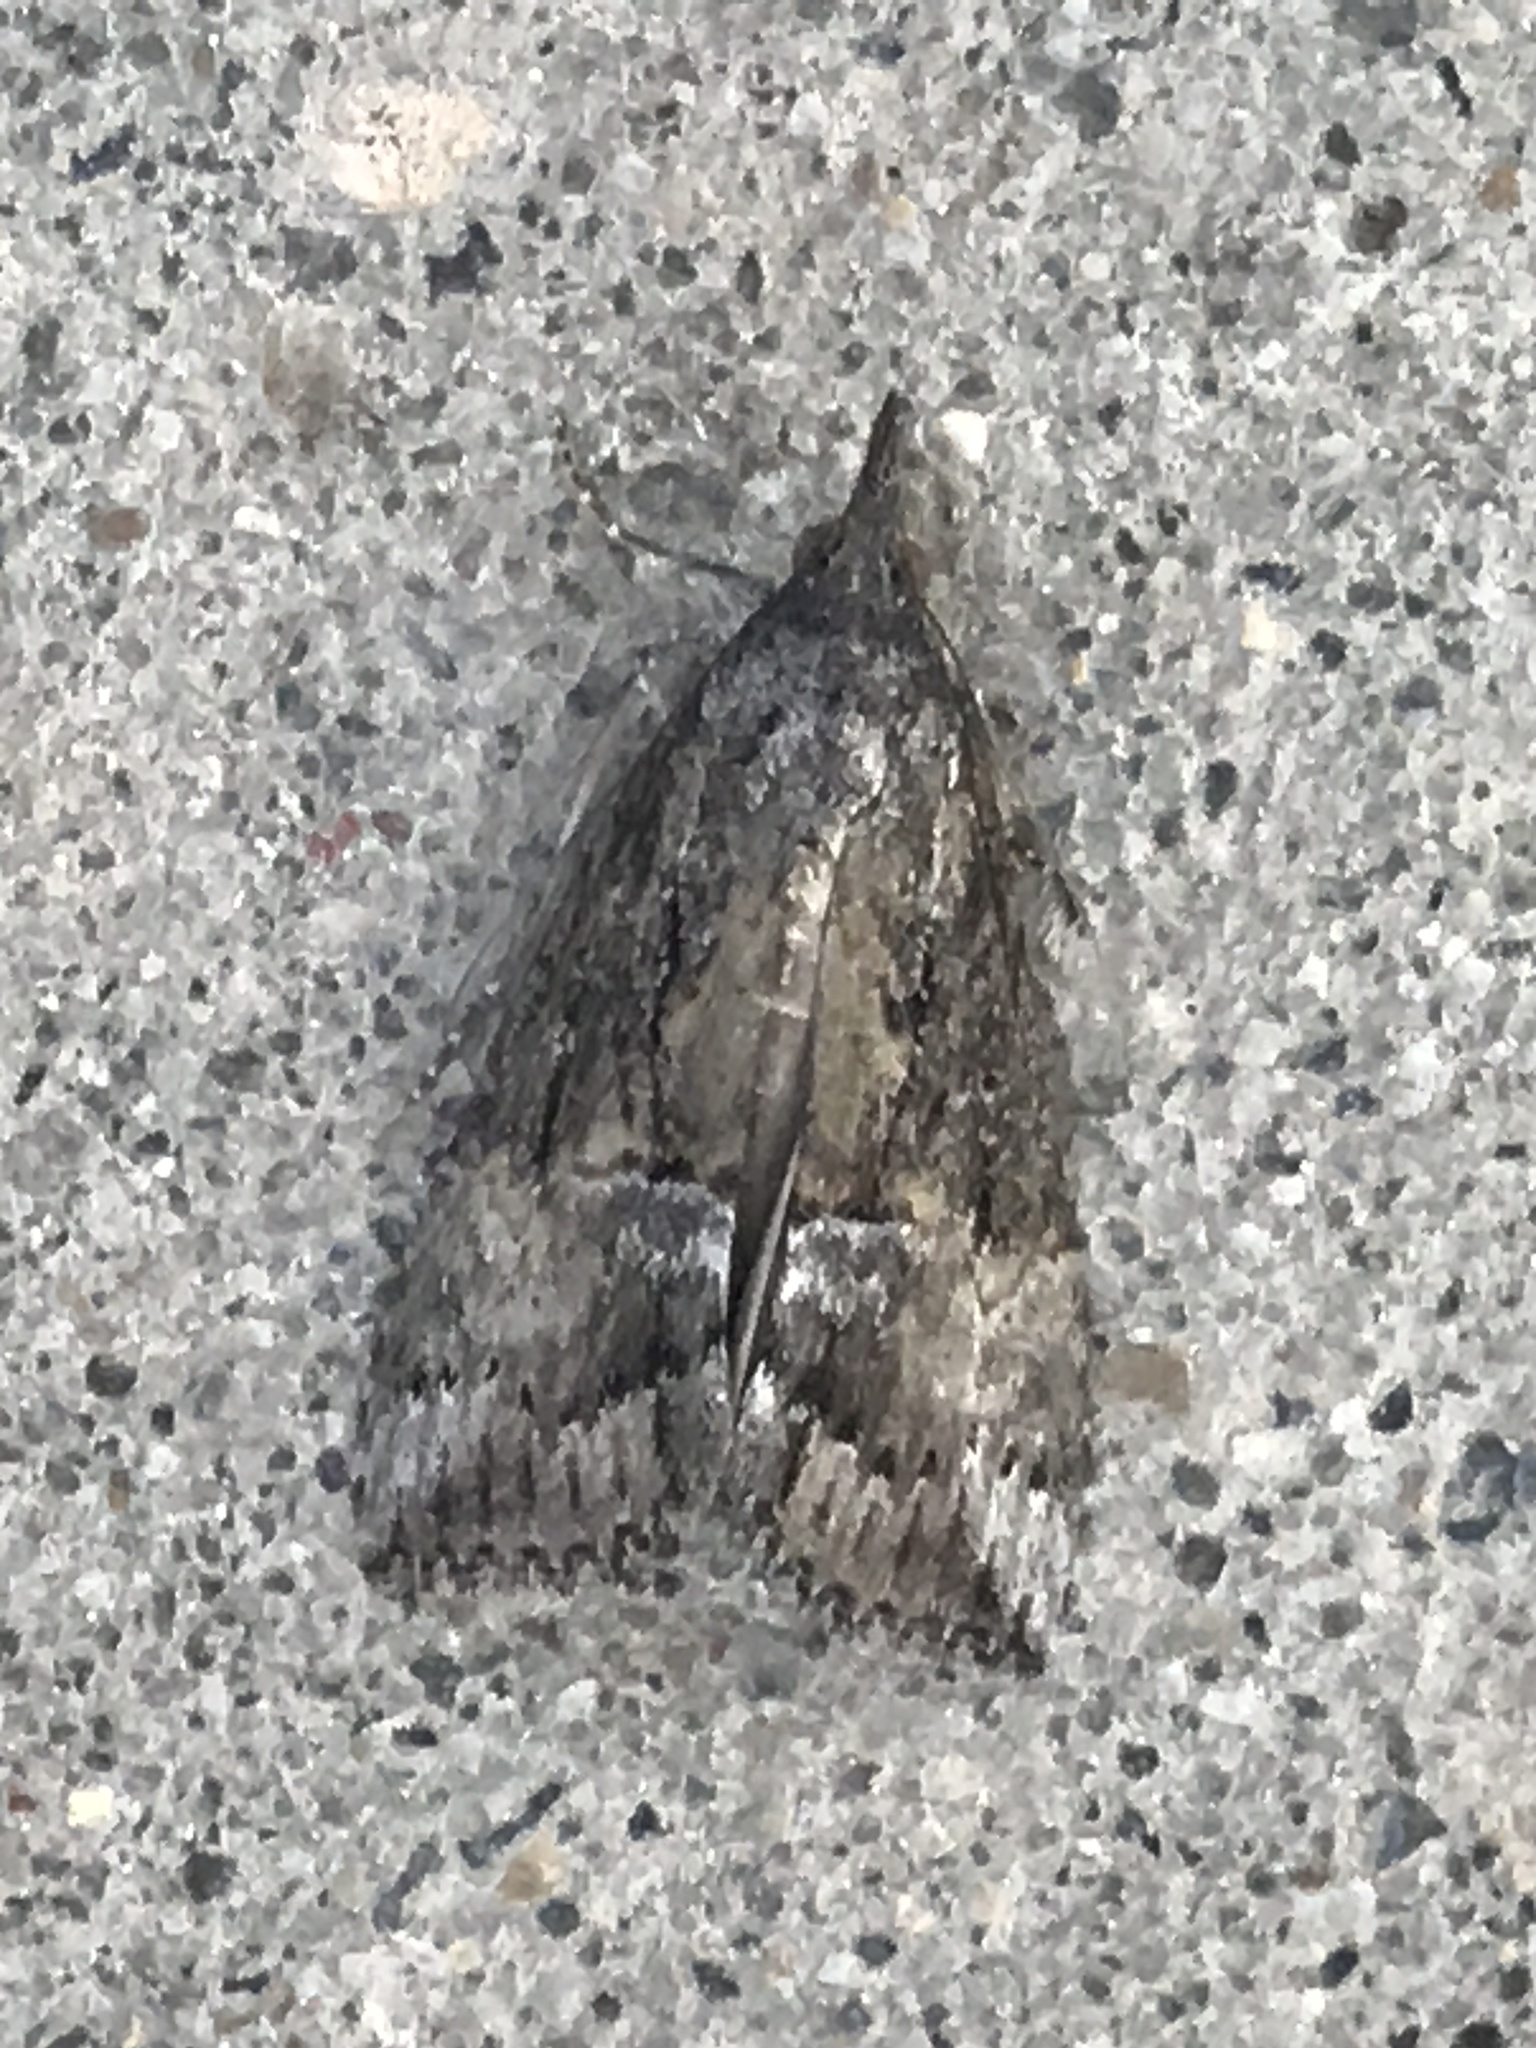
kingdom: Animalia
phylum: Arthropoda
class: Insecta
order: Lepidoptera
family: Erebidae
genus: Hypena
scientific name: Hypena scabra
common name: Green cloverworm
